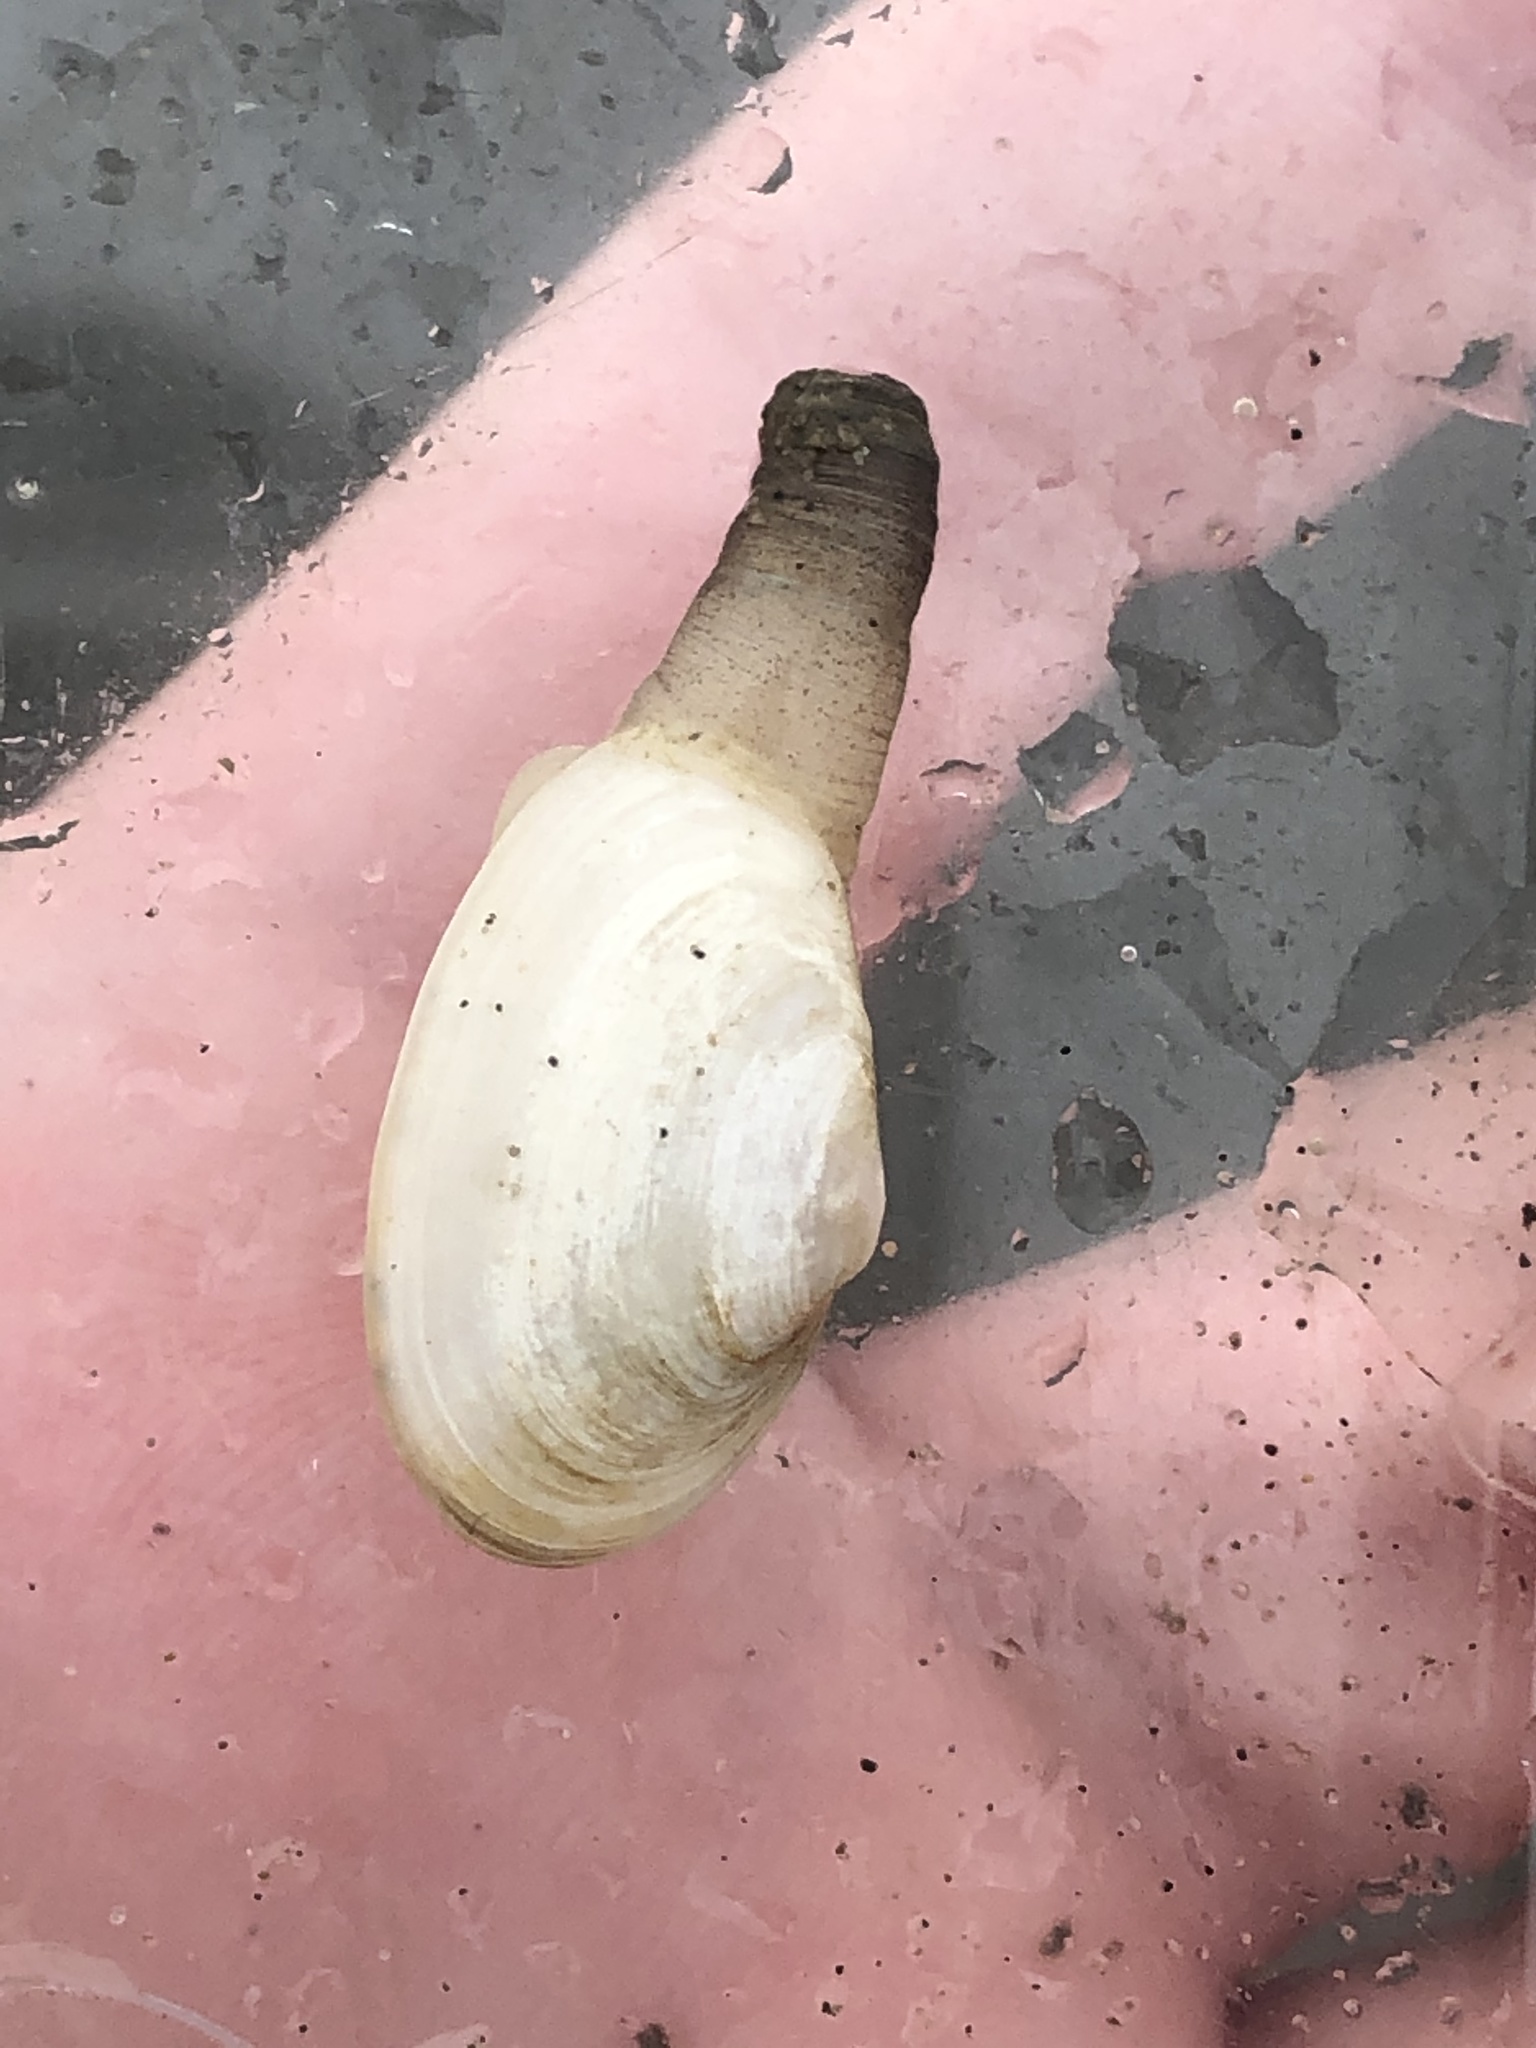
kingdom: Animalia
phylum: Mollusca
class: Bivalvia
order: Myida
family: Myidae
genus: Mya
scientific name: Mya arenaria
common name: Soft-shelled clam
